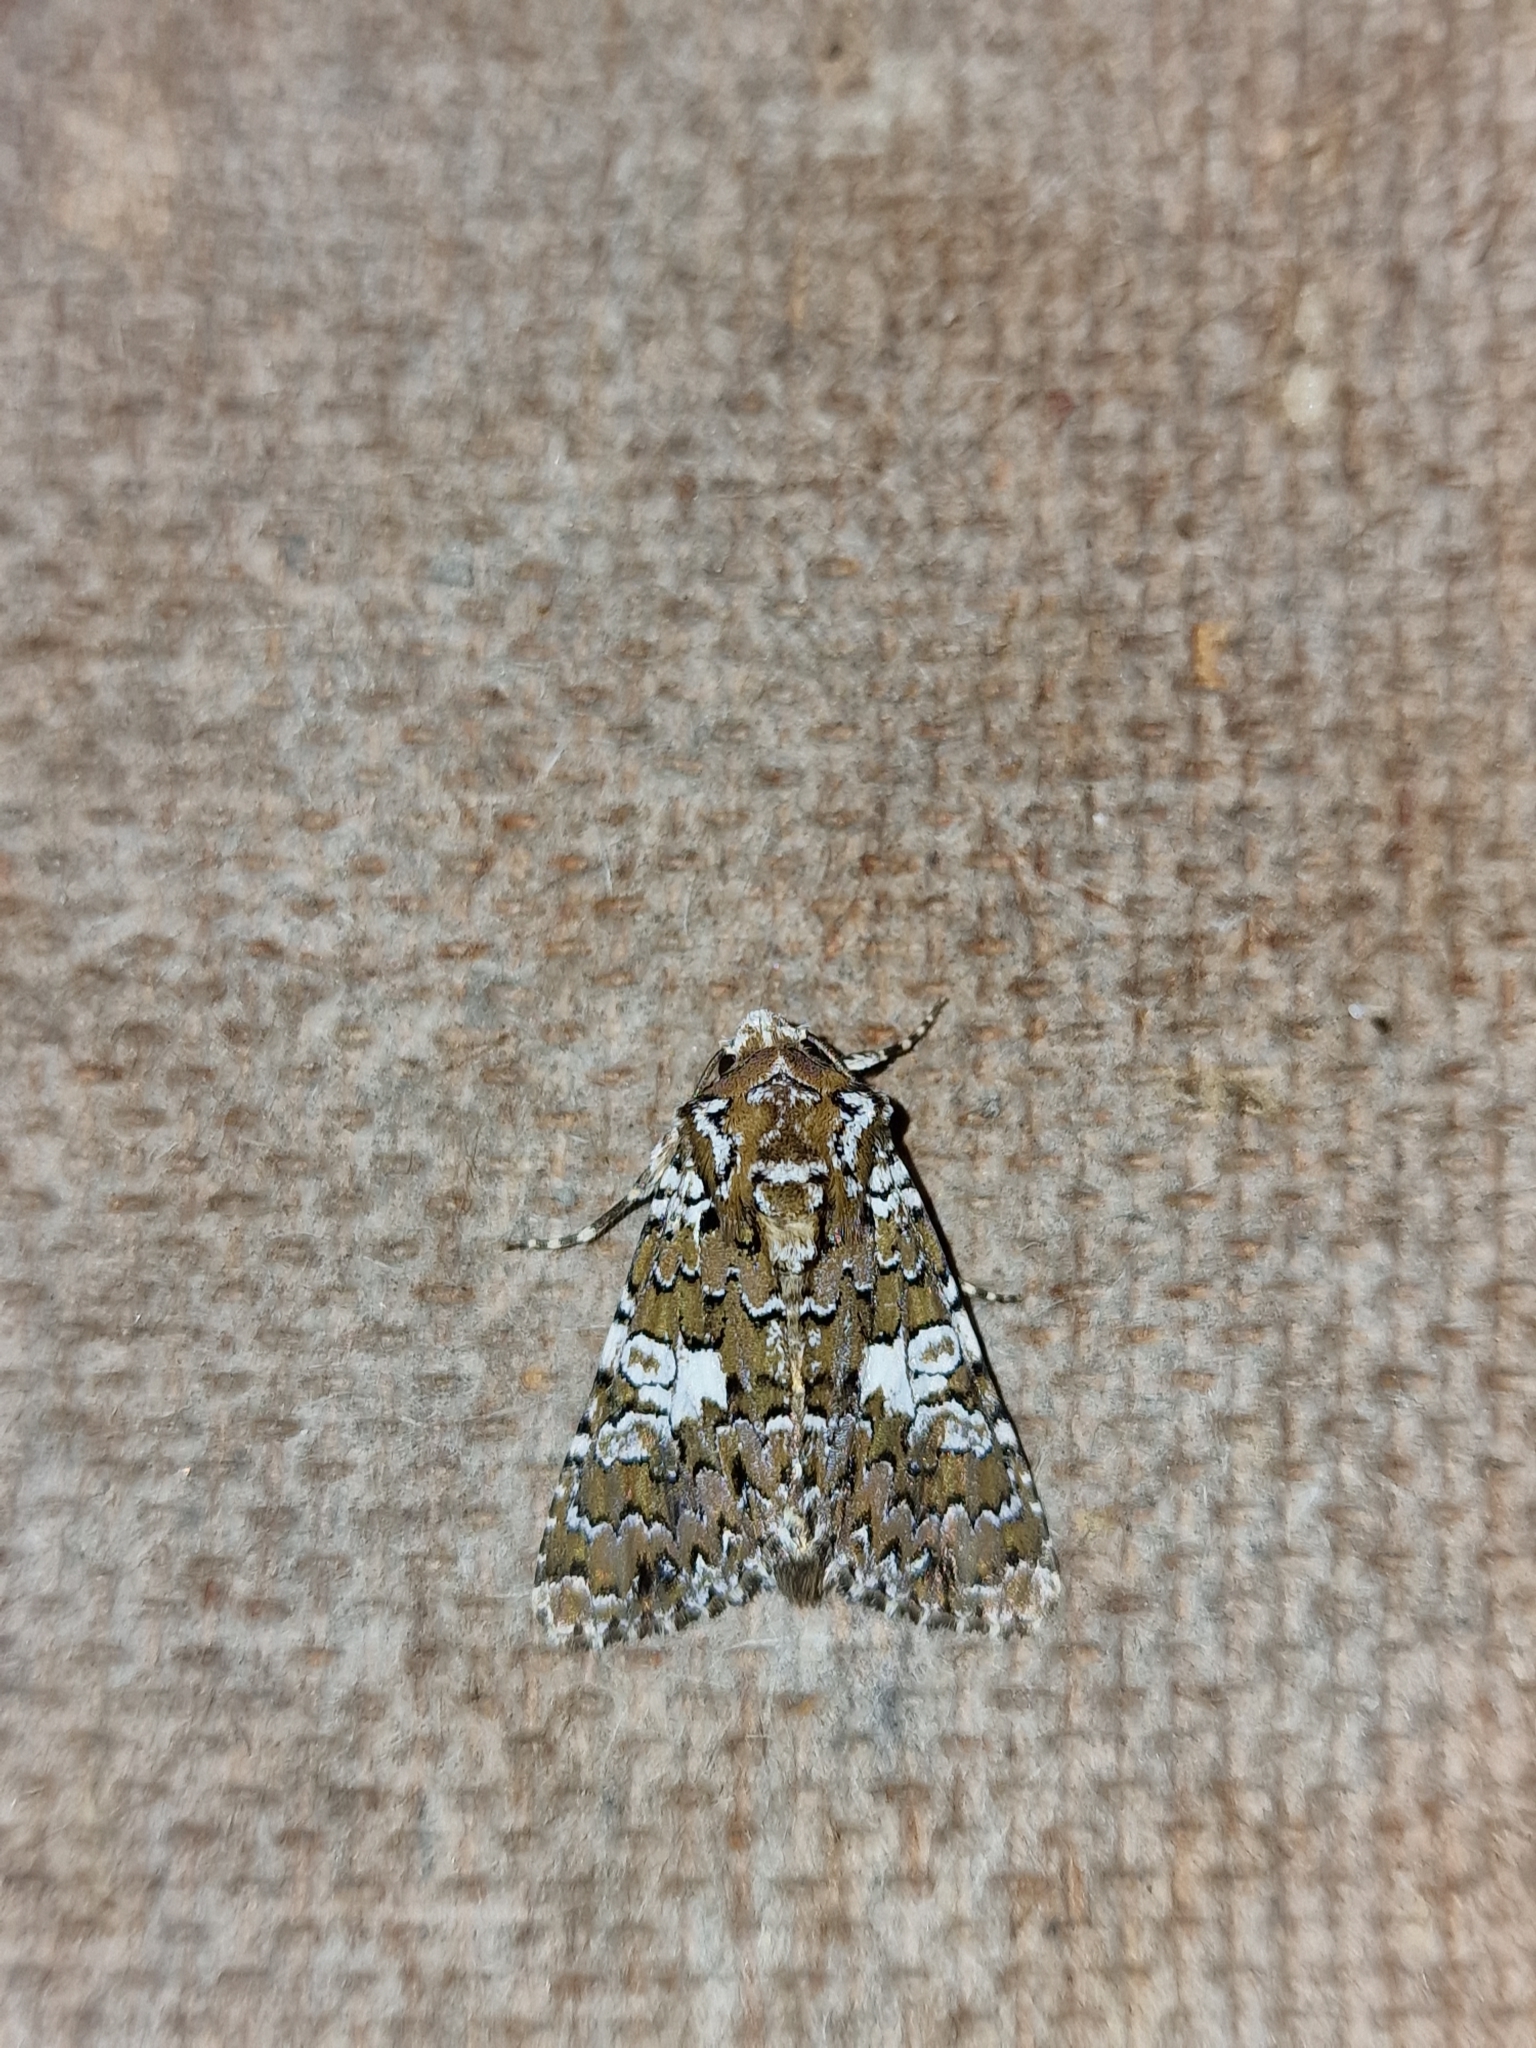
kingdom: Animalia
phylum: Arthropoda
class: Insecta
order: Lepidoptera
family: Noctuidae
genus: Hadena
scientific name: Hadena albimacula
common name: White spot
